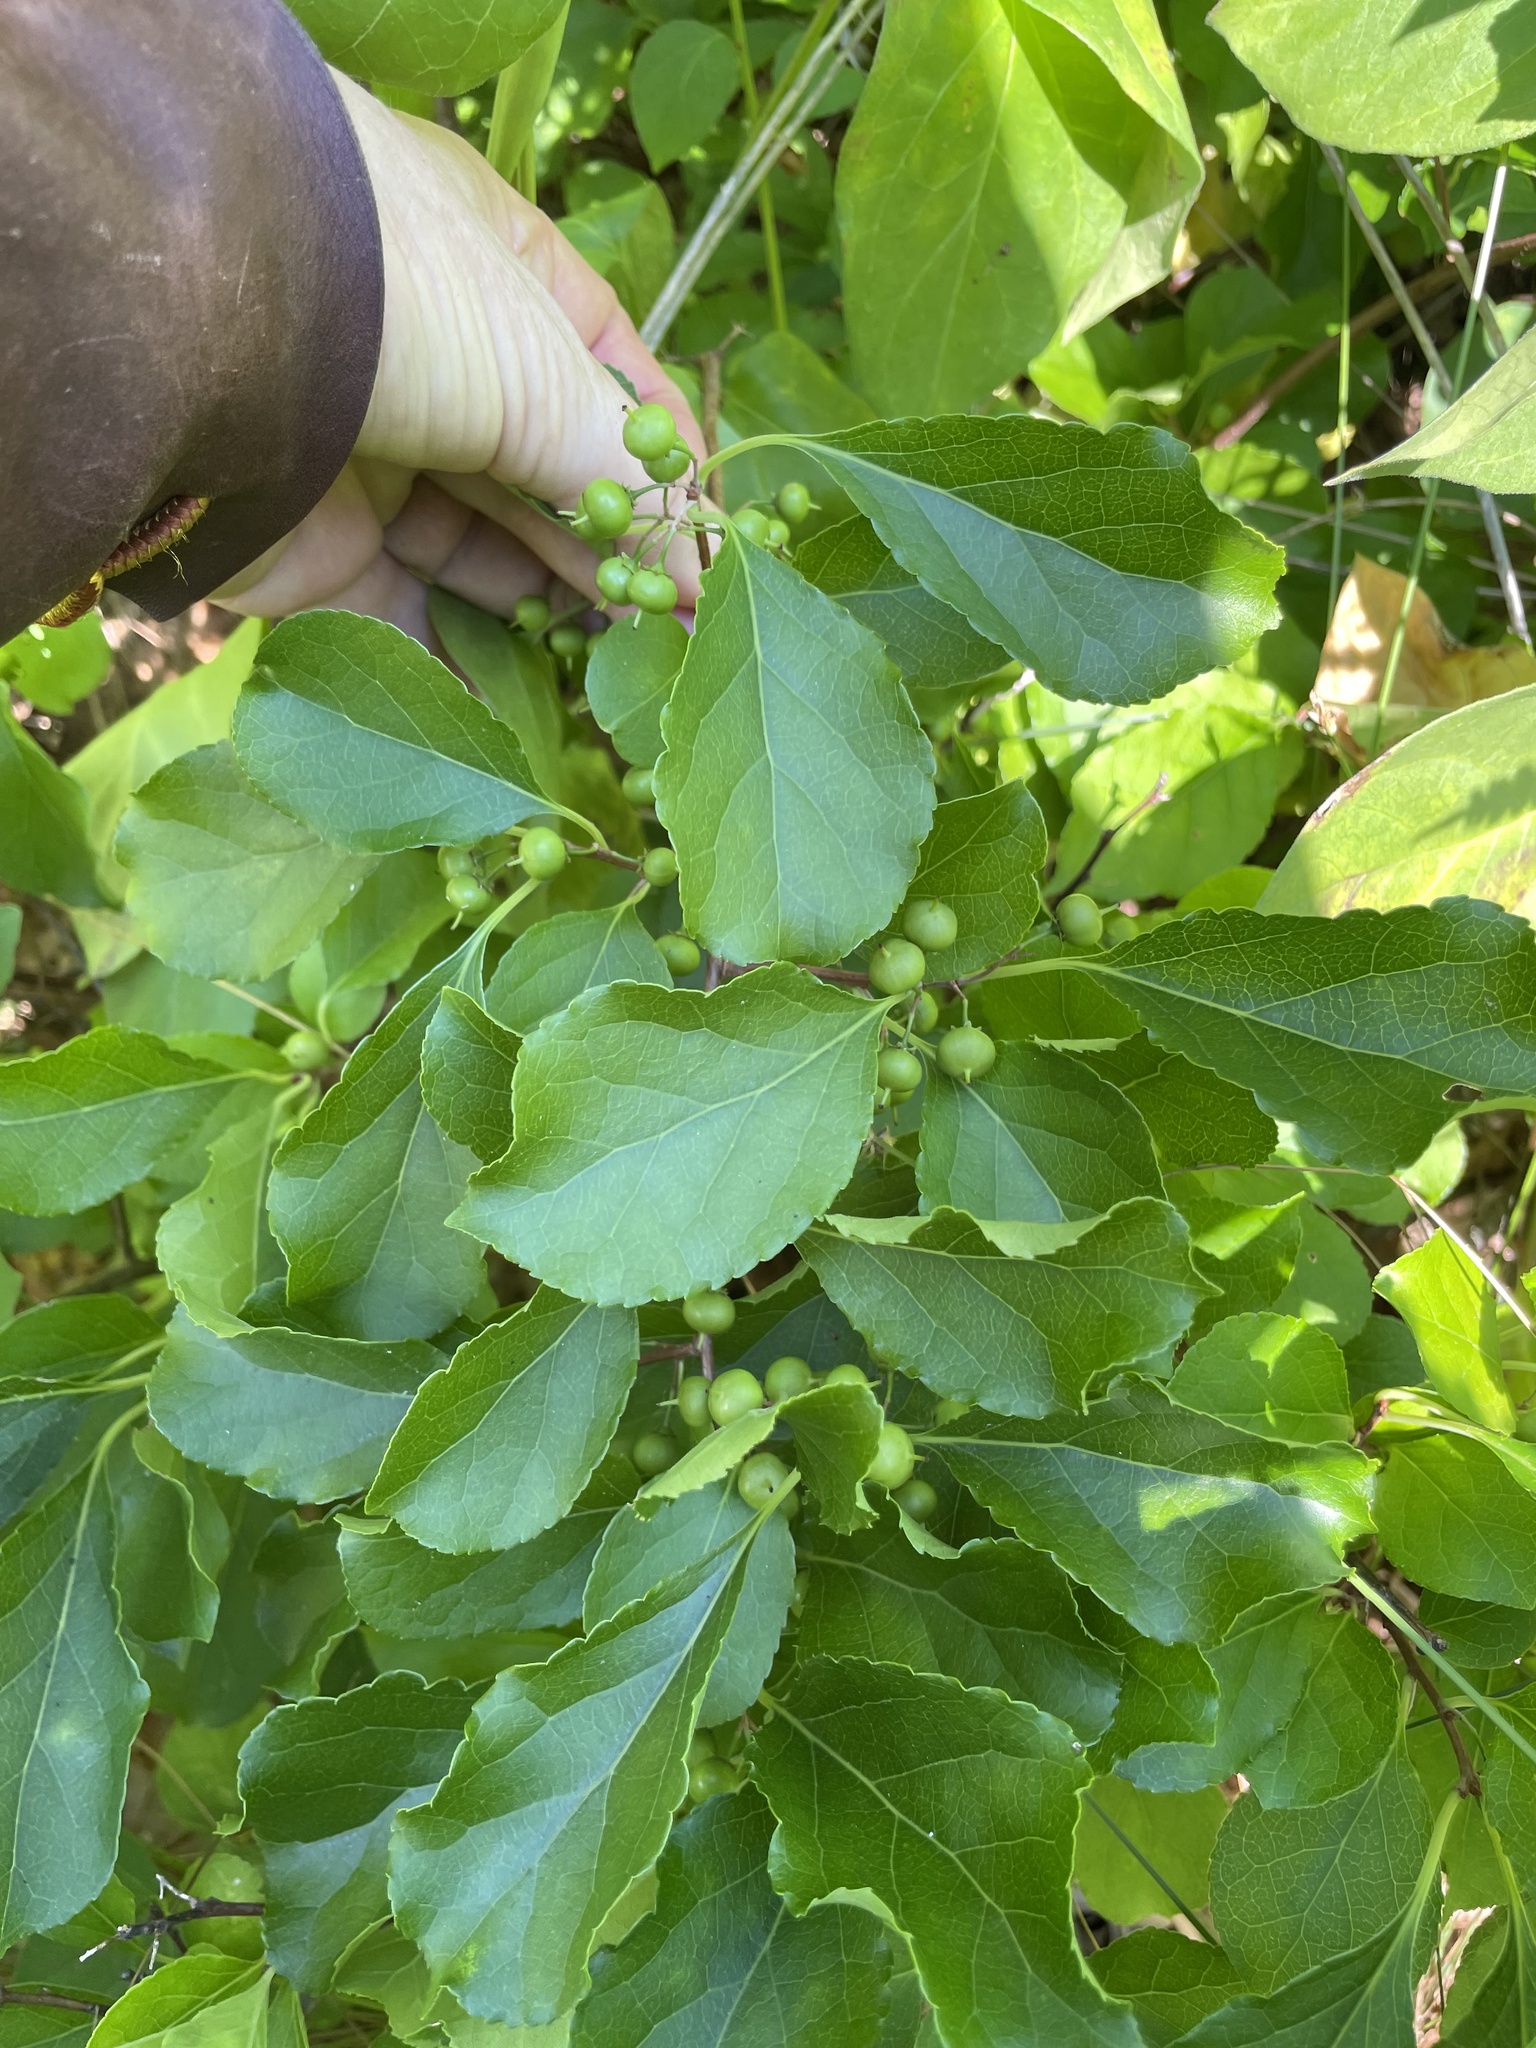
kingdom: Plantae
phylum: Tracheophyta
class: Magnoliopsida
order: Celastrales
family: Celastraceae
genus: Celastrus
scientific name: Celastrus orbiculatus
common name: Oriental bittersweet
